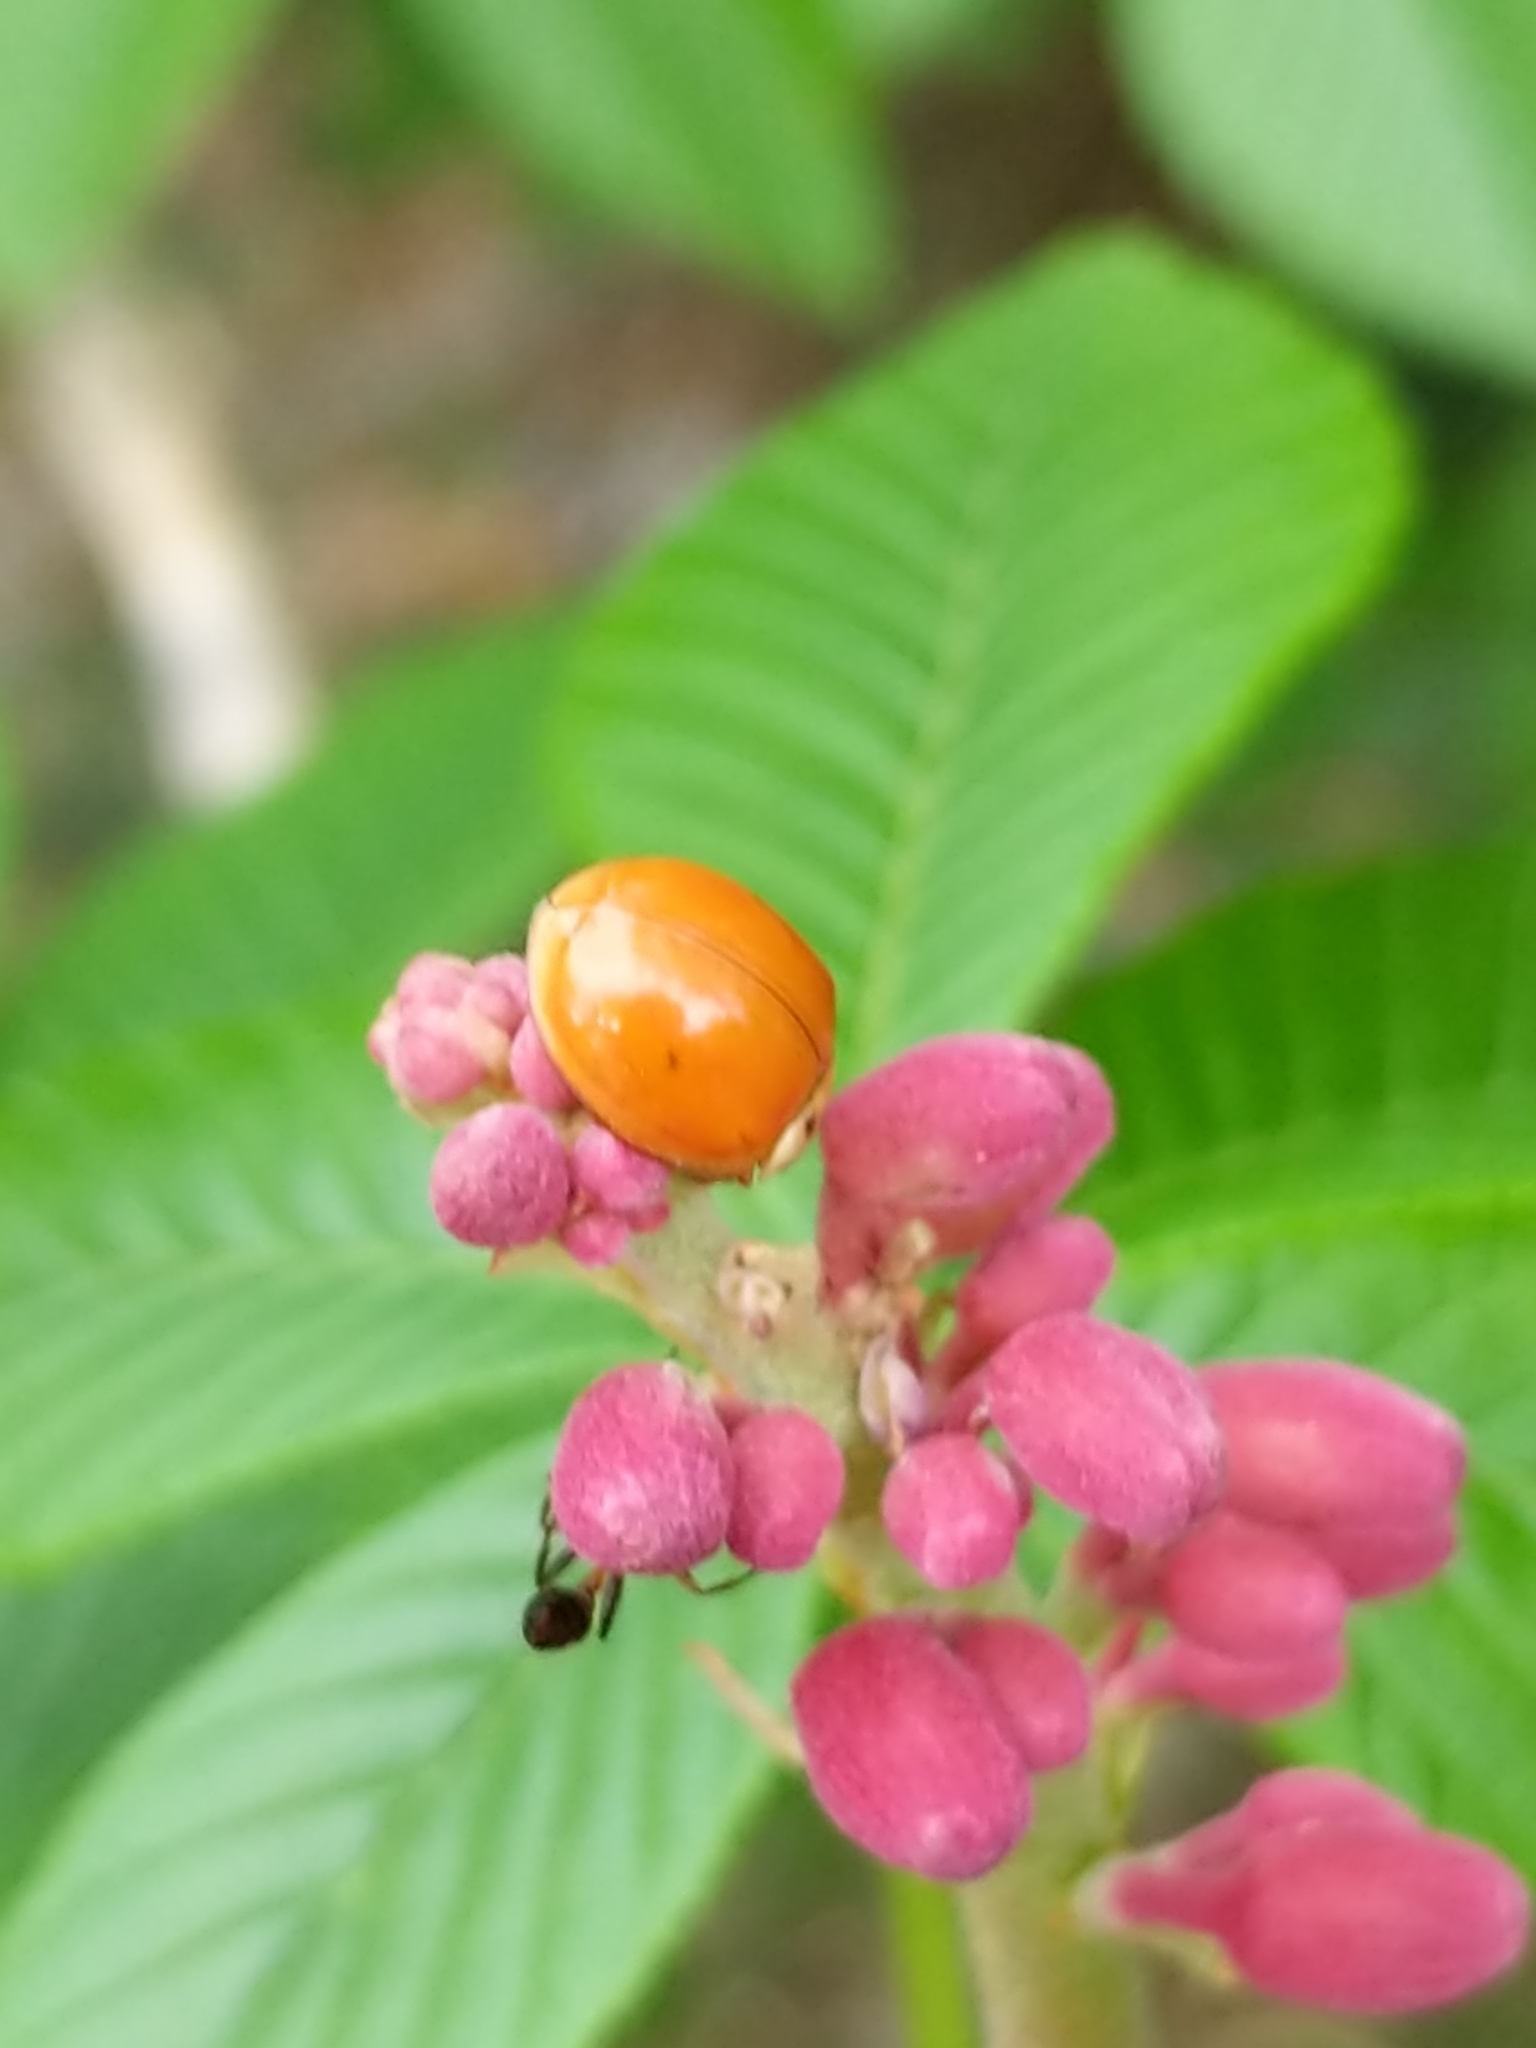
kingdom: Animalia
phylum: Arthropoda
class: Insecta
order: Coleoptera
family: Coccinellidae
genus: Harmonia
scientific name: Harmonia axyridis
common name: Harlequin ladybird
